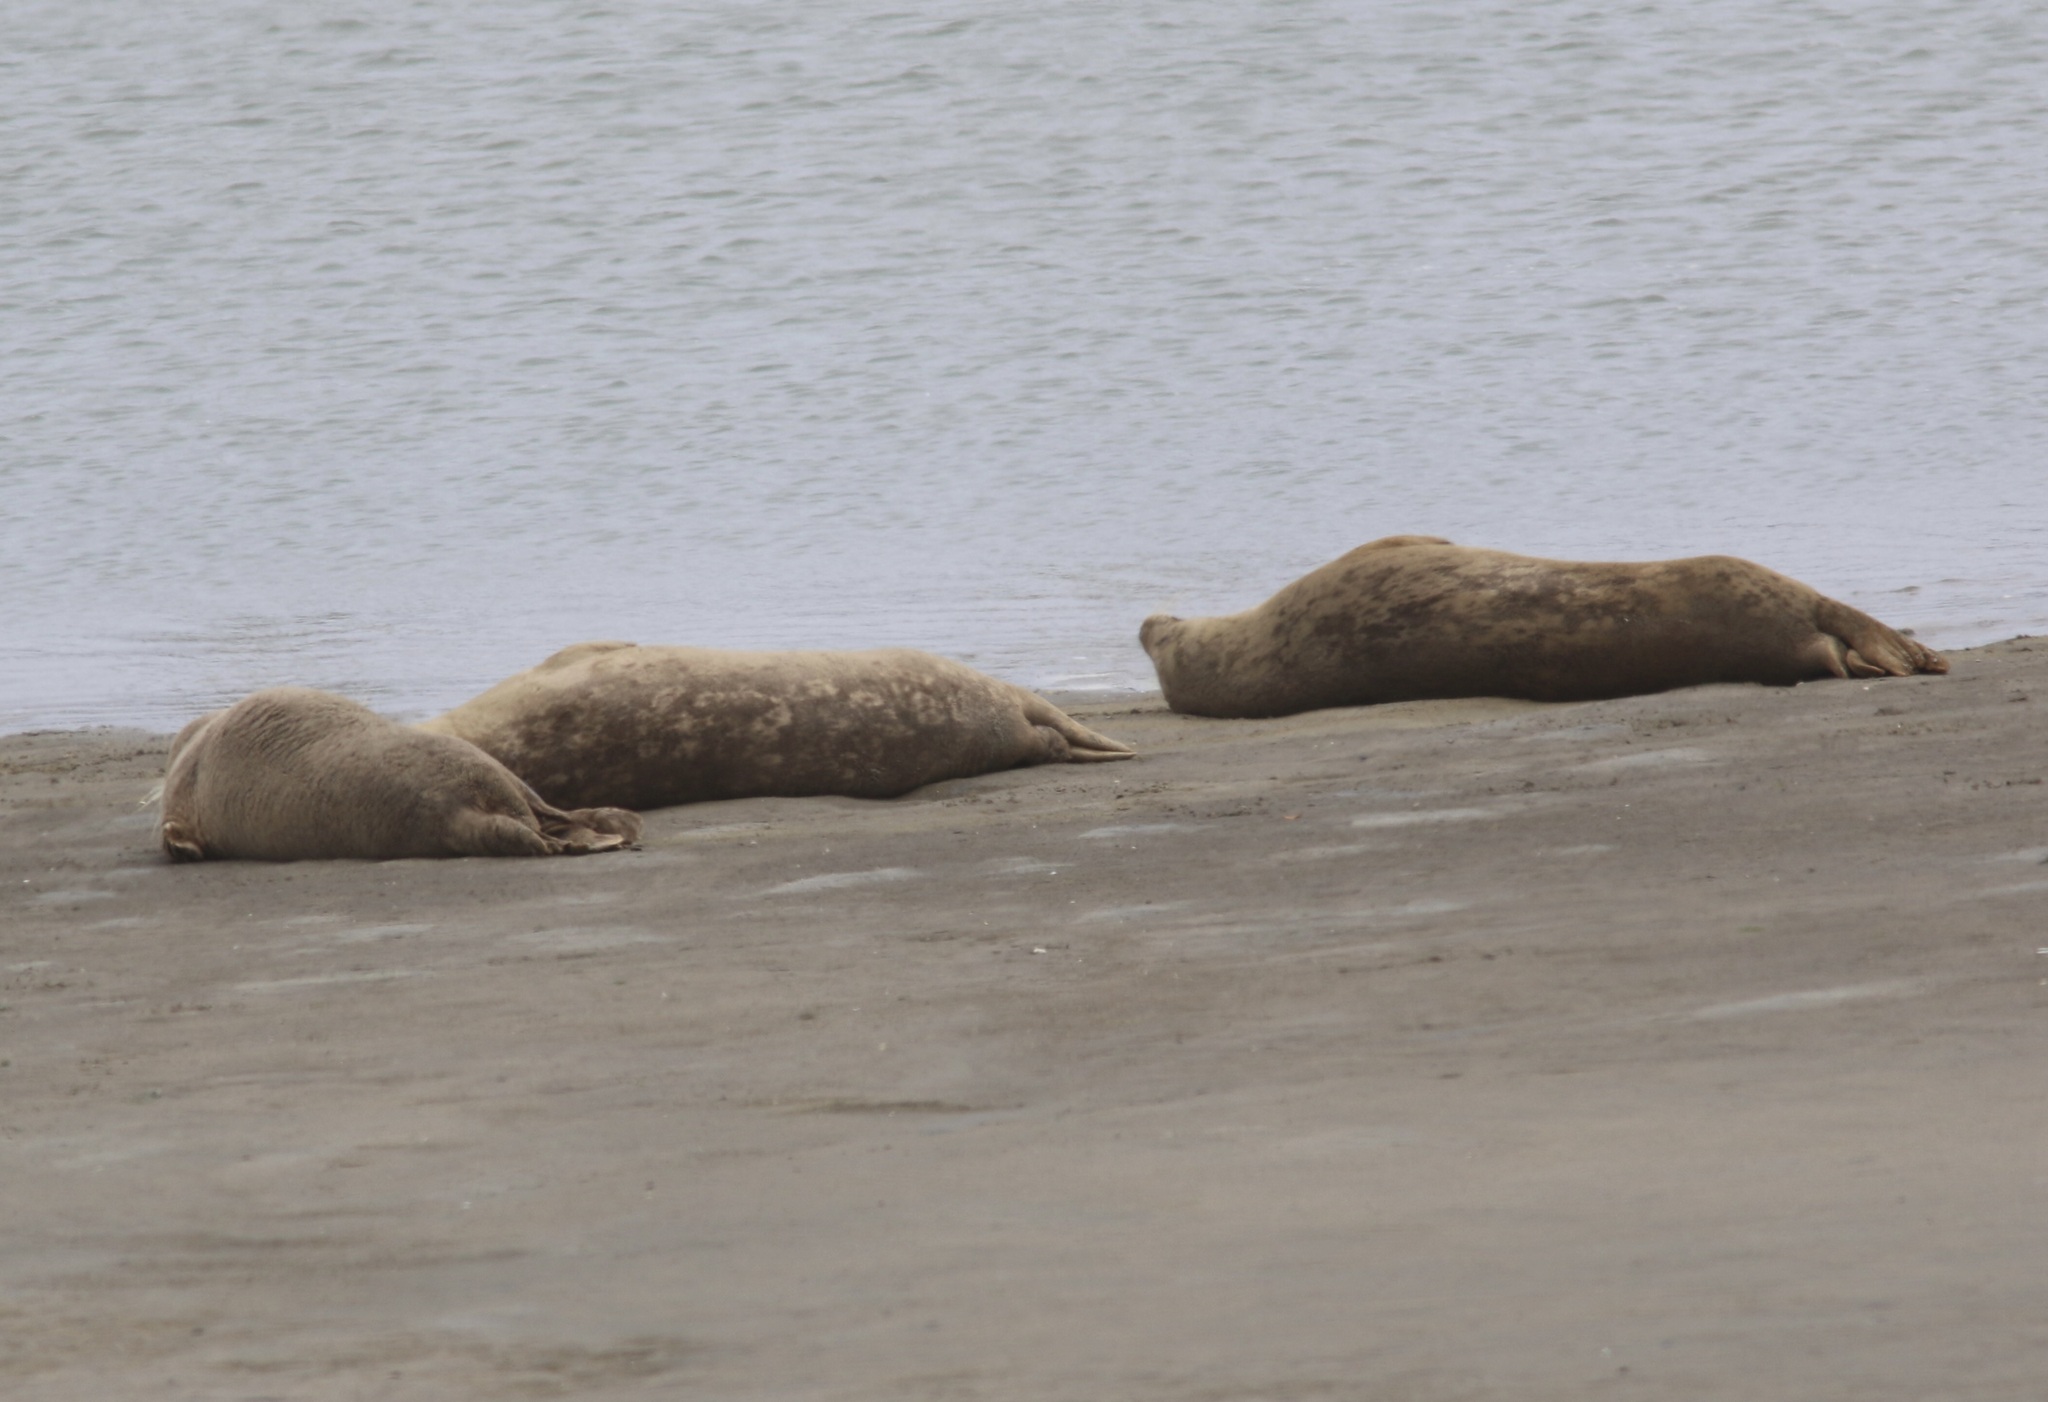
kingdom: Animalia
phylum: Chordata
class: Mammalia
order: Carnivora
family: Phocidae
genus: Phoca
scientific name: Phoca vitulina
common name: Harbor seal
